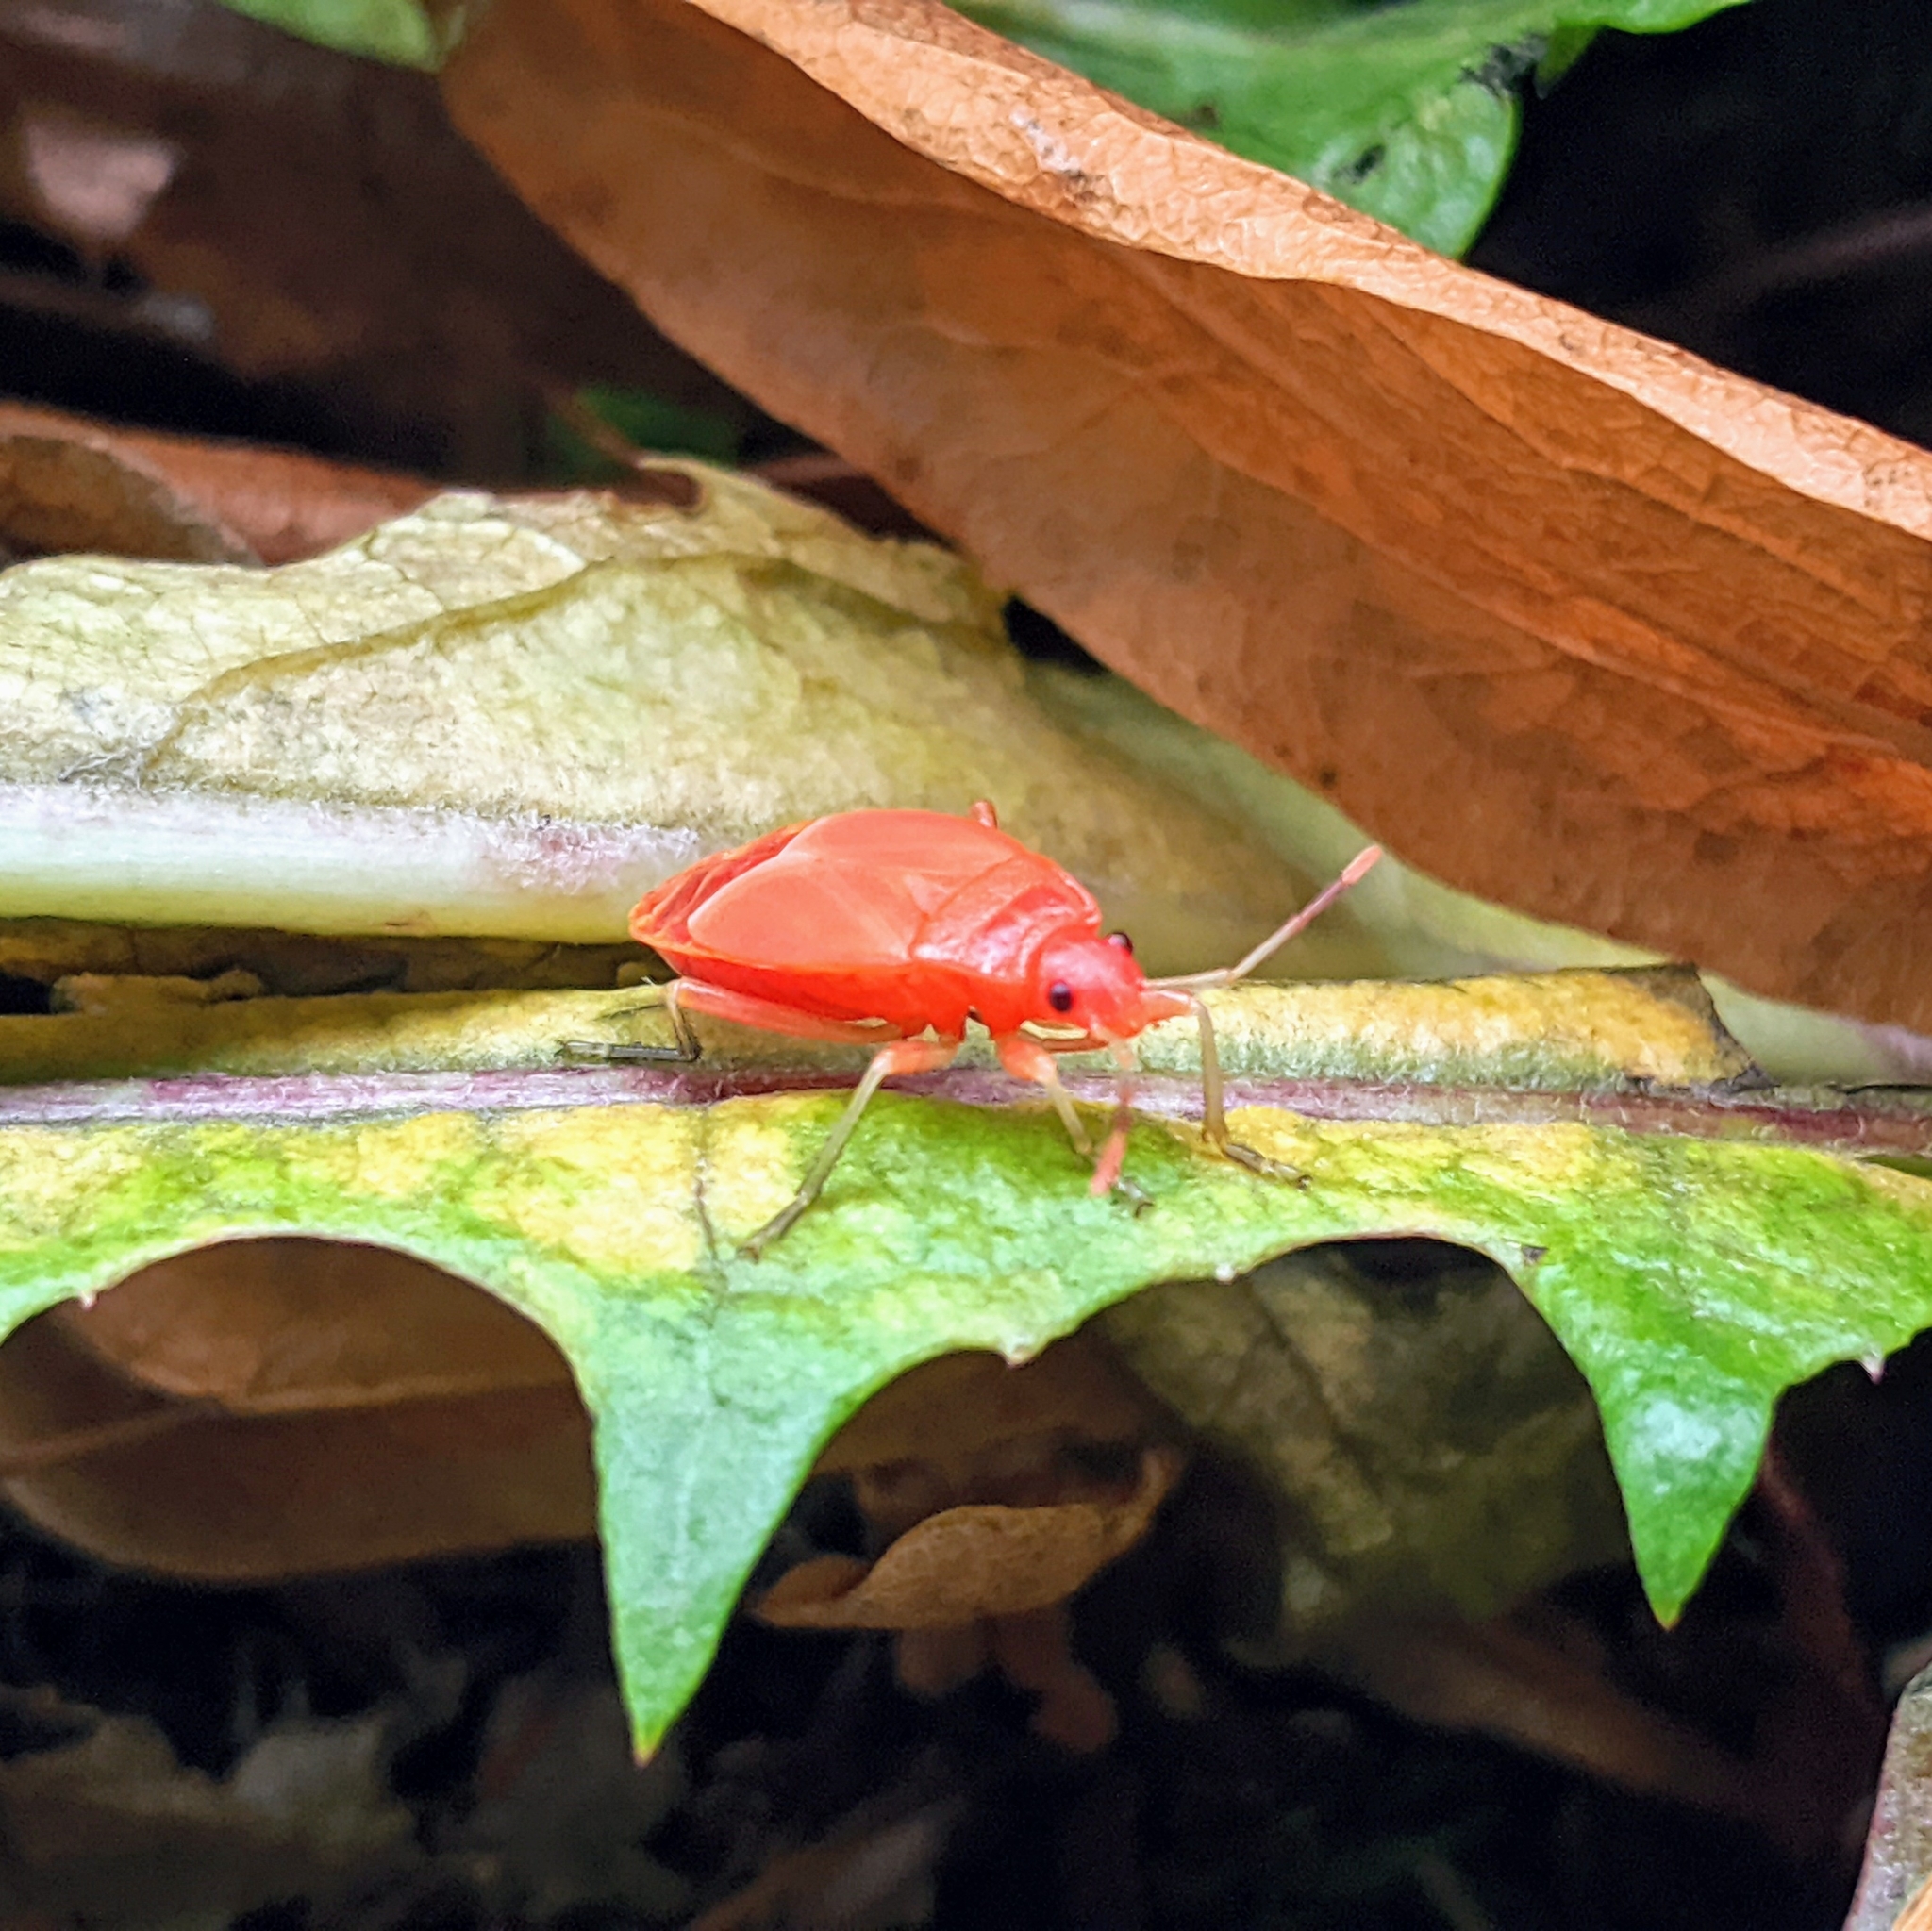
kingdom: Animalia
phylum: Arthropoda
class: Insecta
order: Hemiptera
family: Pyrrhocoridae
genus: Pyrrhocoris
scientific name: Pyrrhocoris apterus
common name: Firebug
